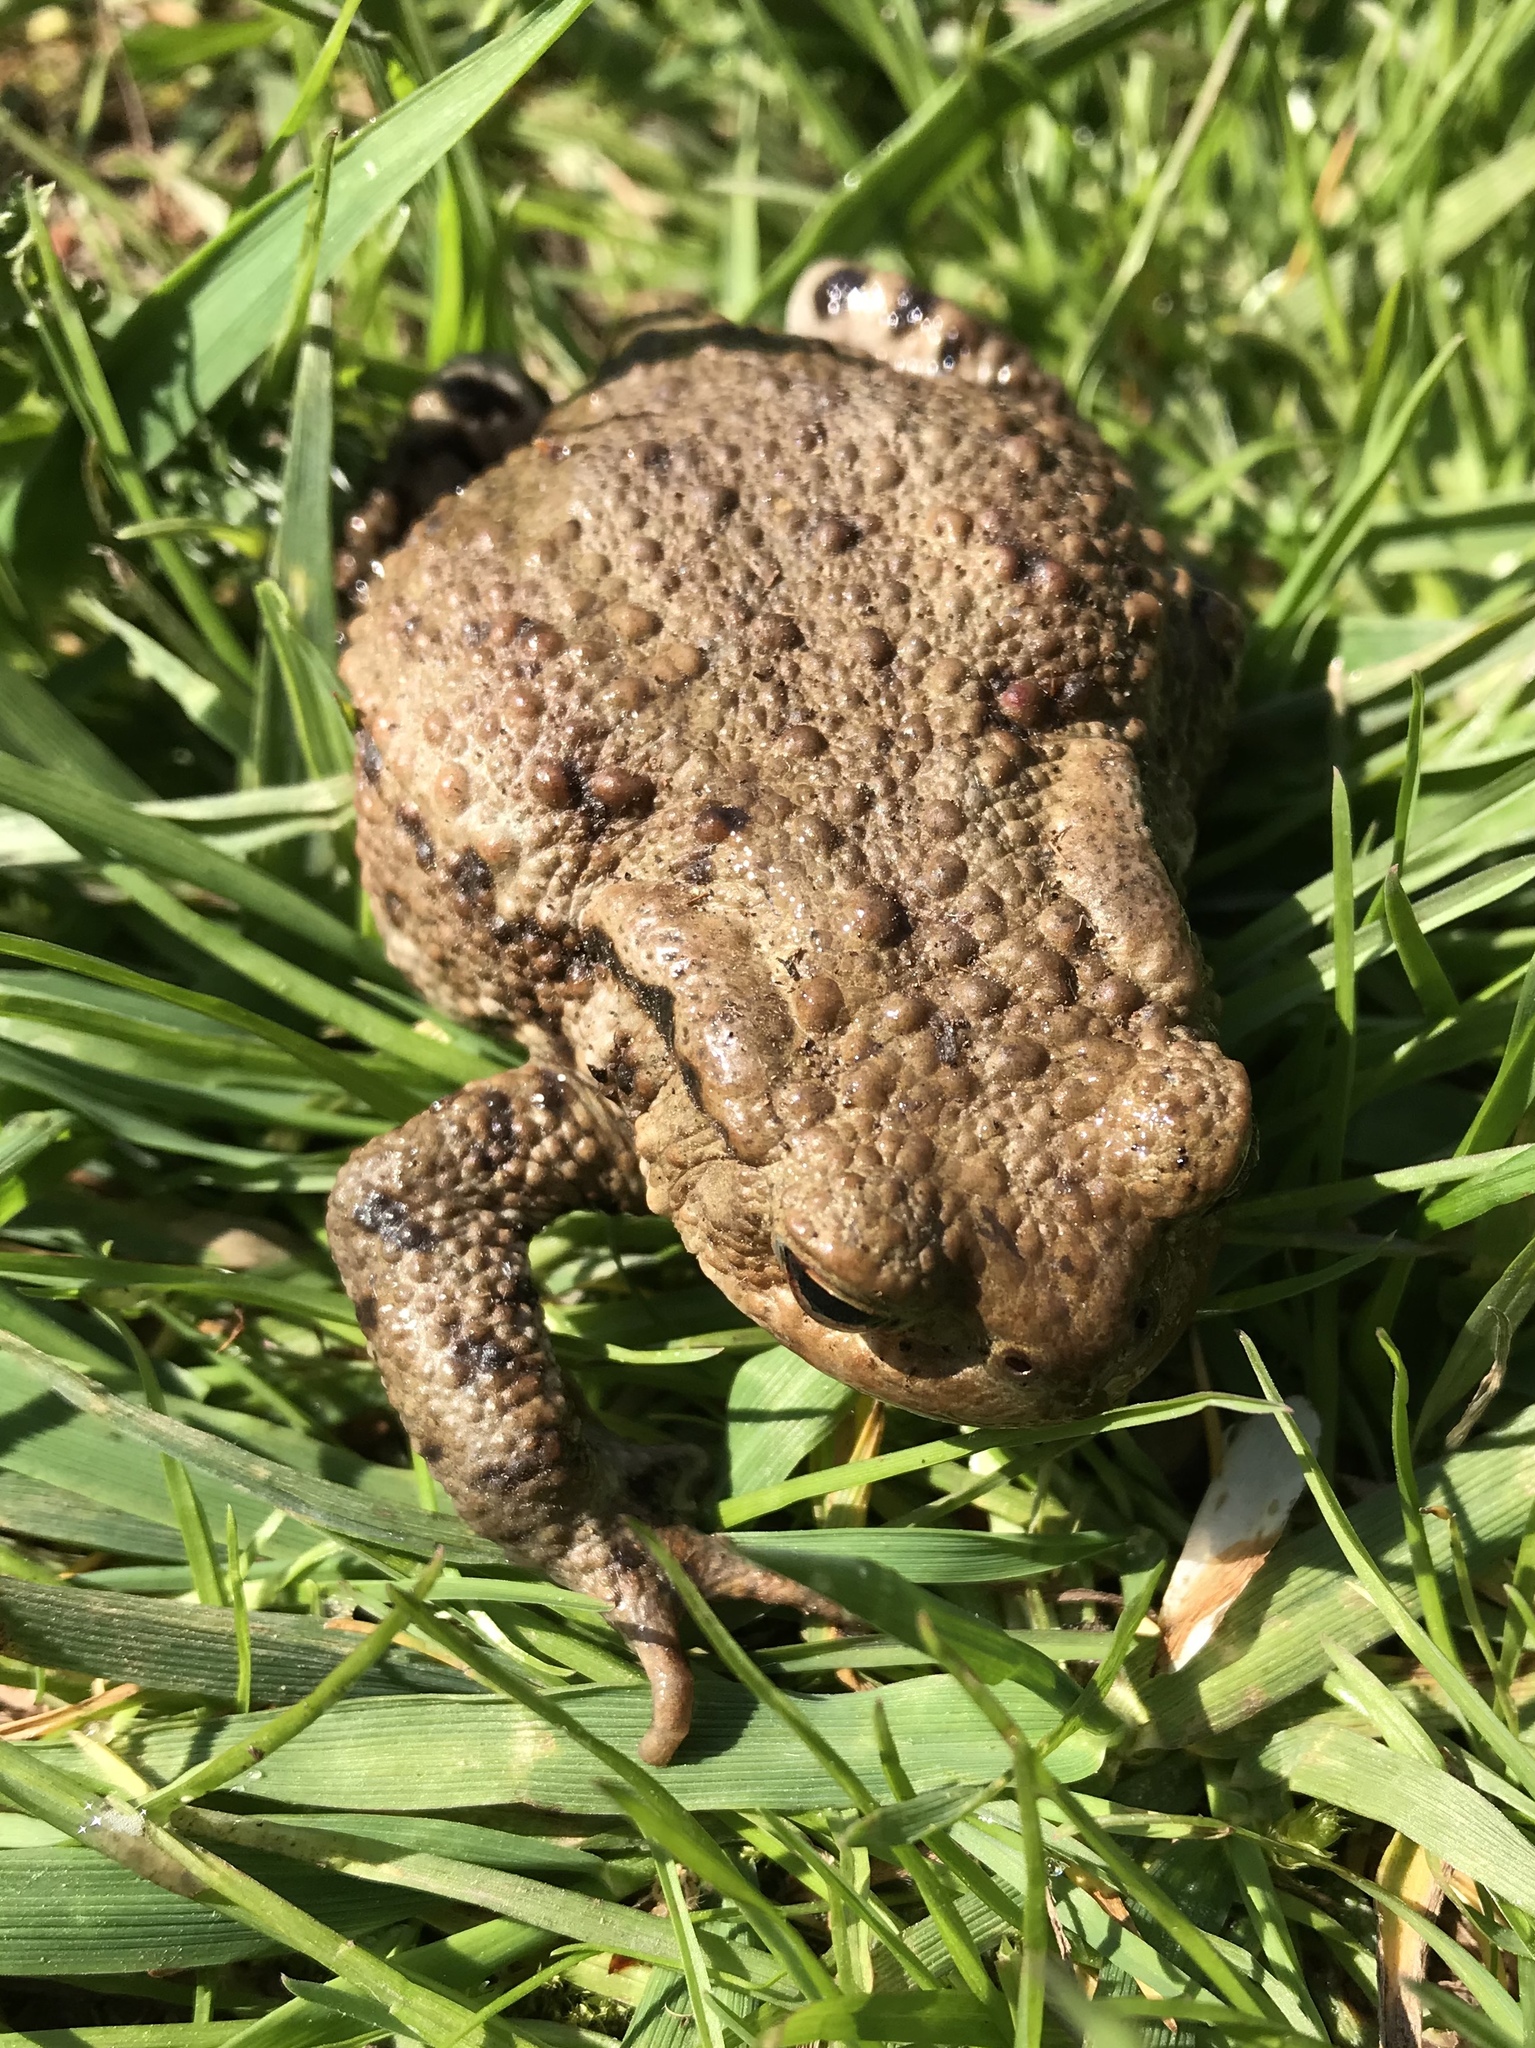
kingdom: Animalia
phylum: Chordata
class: Amphibia
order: Anura
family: Bufonidae
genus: Bufo
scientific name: Bufo bufo
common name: Common toad
